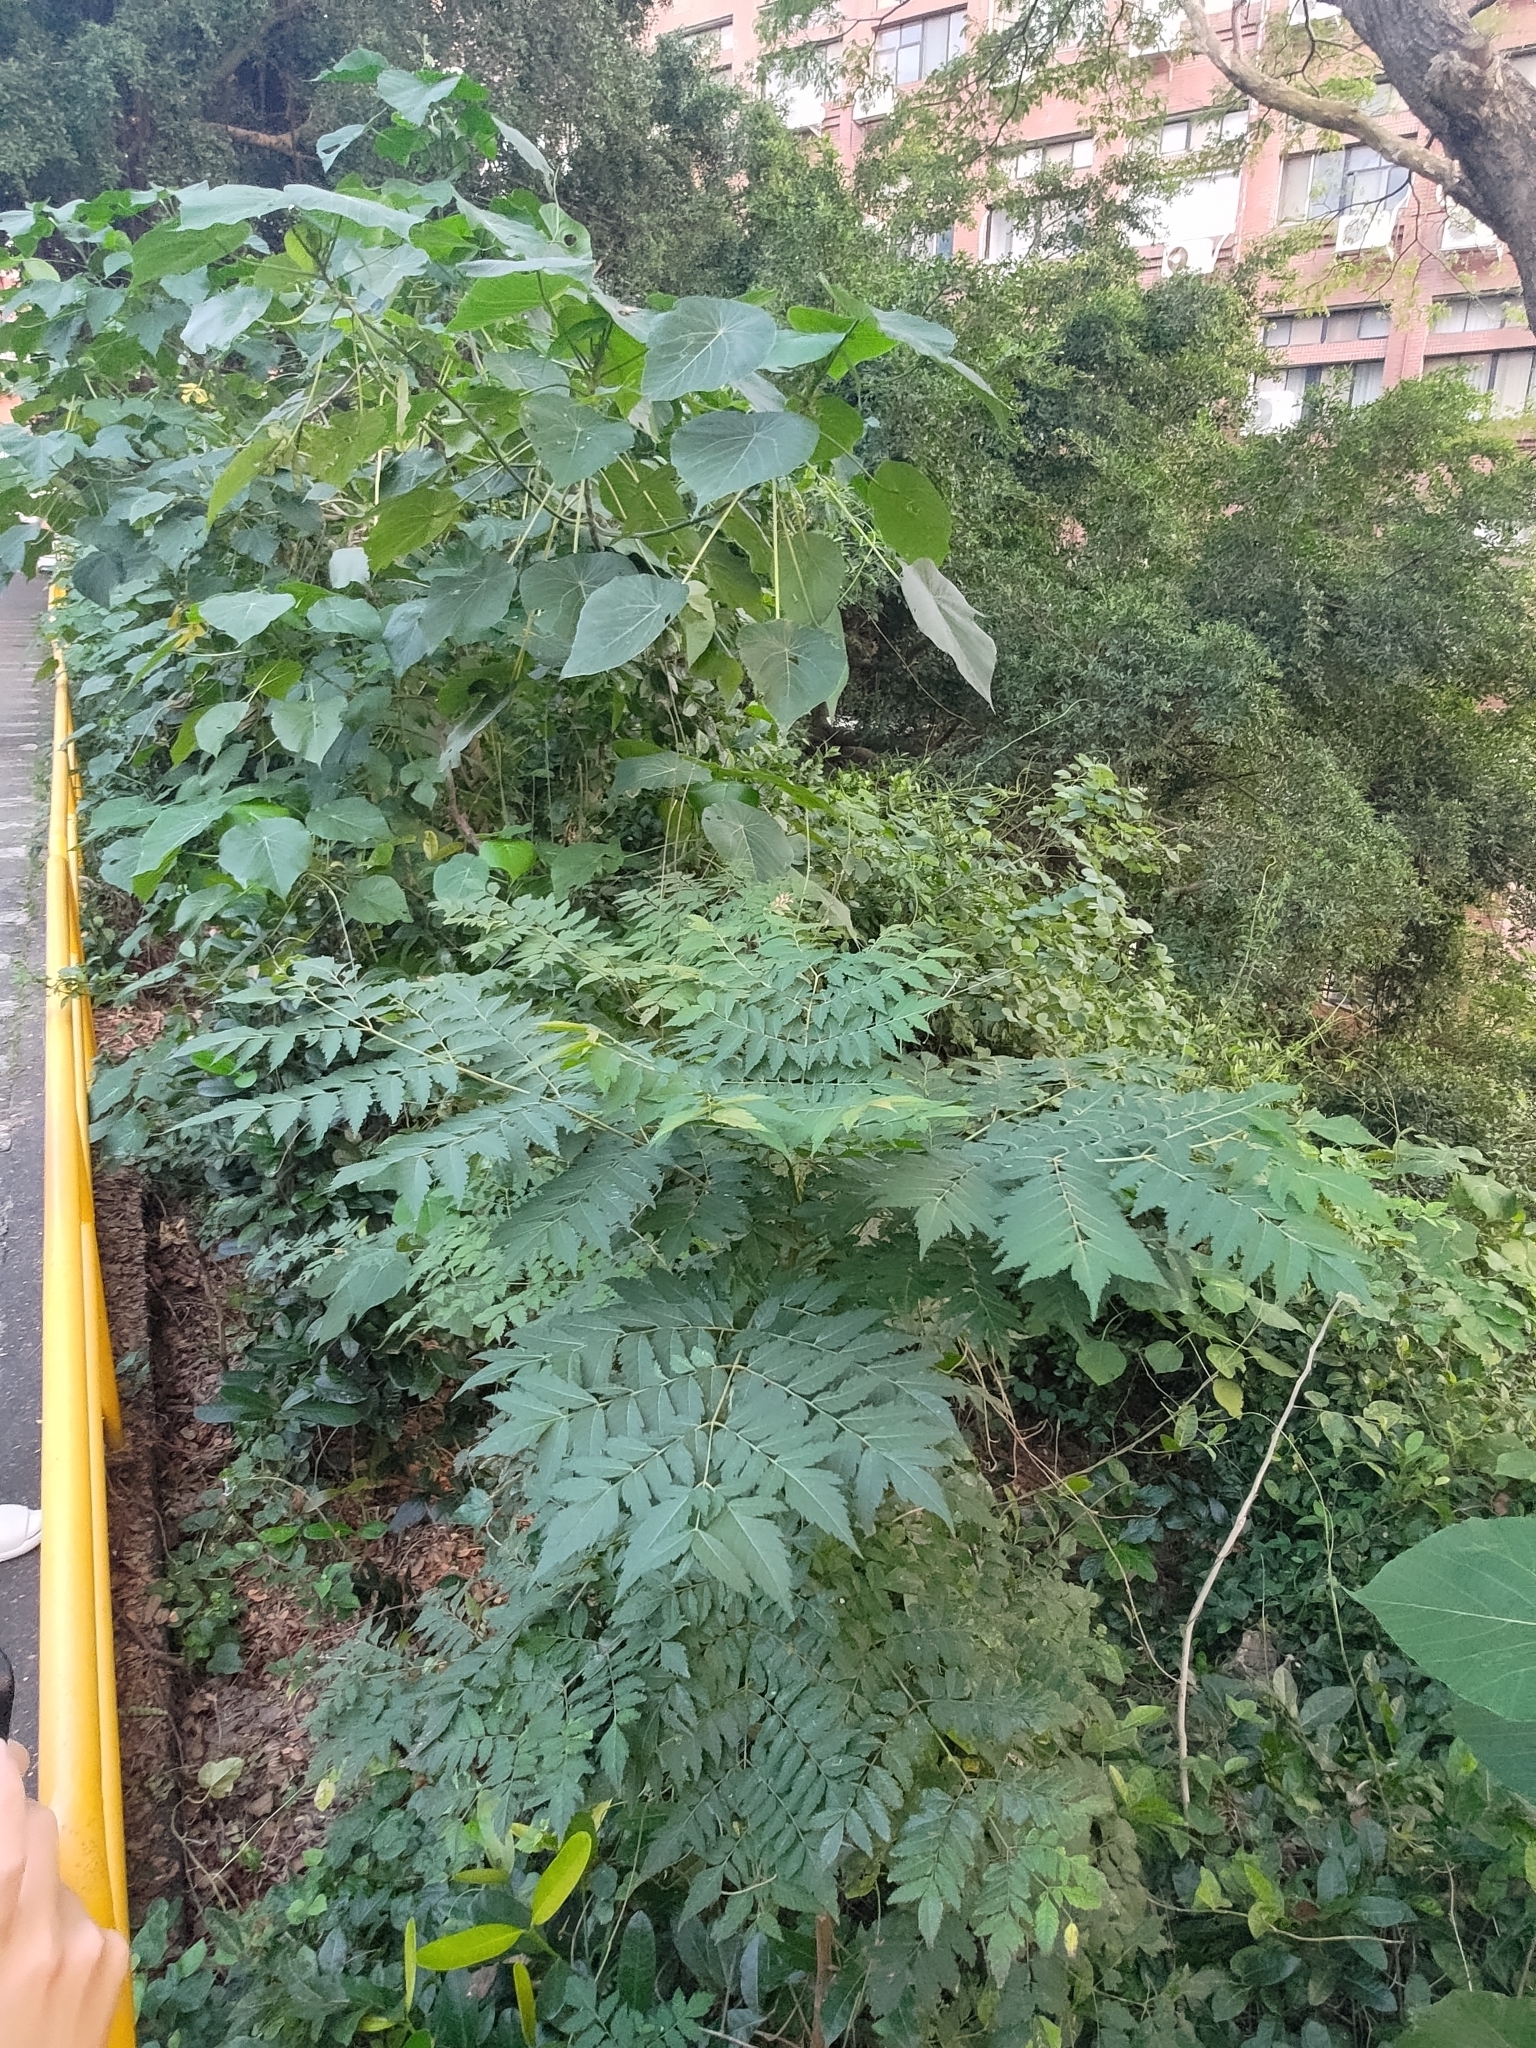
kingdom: Plantae
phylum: Tracheophyta
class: Magnoliopsida
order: Sapindales
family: Sapindaceae
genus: Koelreuteria
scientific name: Koelreuteria elegans
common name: Chinese flame tree
